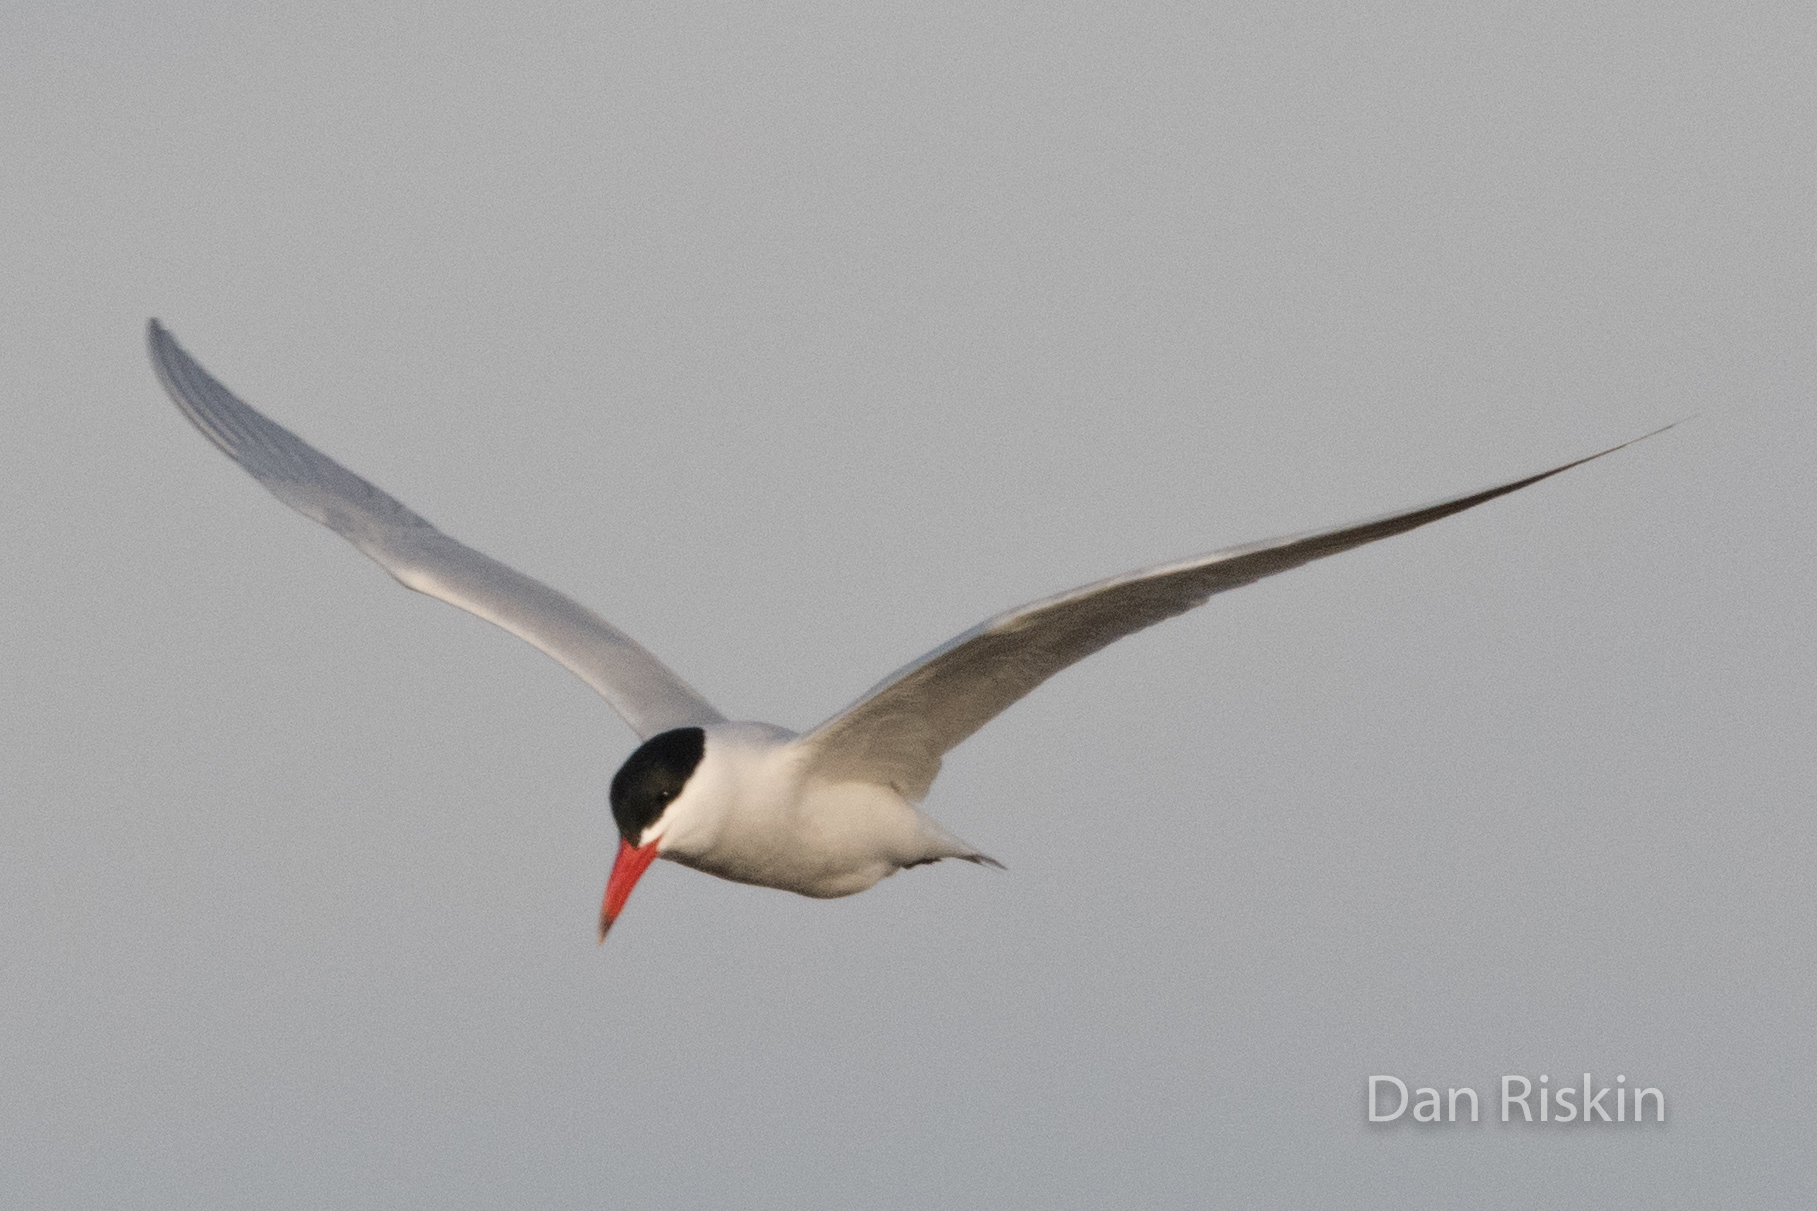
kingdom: Animalia
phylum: Chordata
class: Aves
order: Charadriiformes
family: Laridae
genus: Hydroprogne
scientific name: Hydroprogne caspia
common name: Caspian tern
